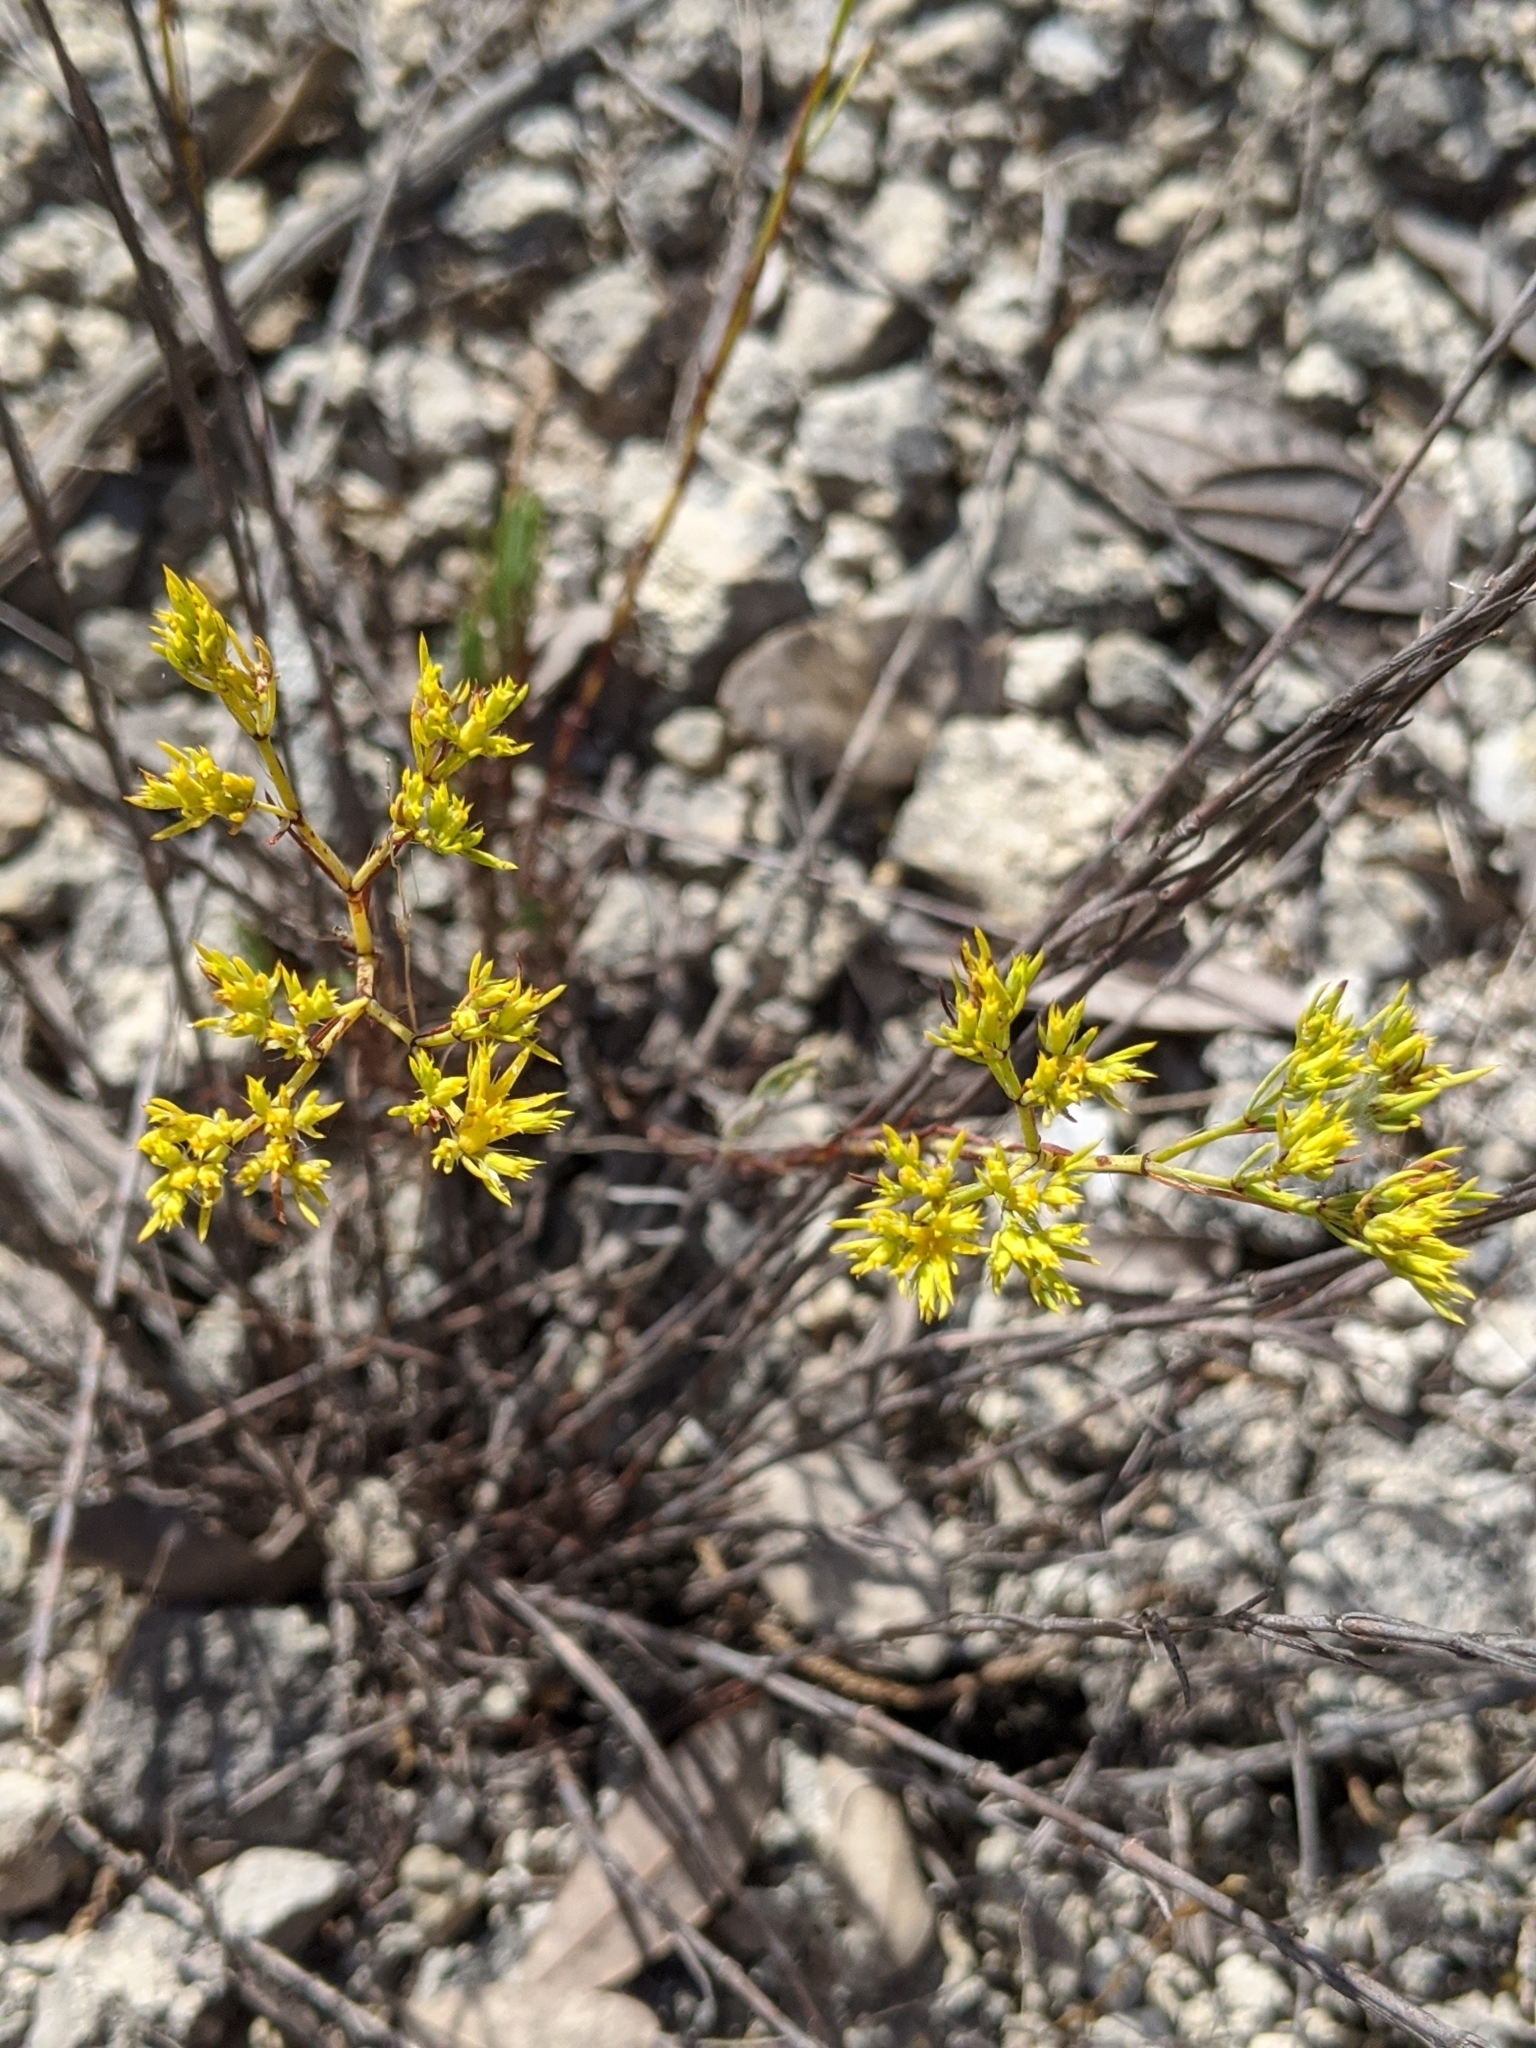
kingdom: Plantae
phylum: Tracheophyta
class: Magnoliopsida
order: Caryophyllales
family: Caryophyllaceae
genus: Paronychia
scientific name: Paronychia virginica
